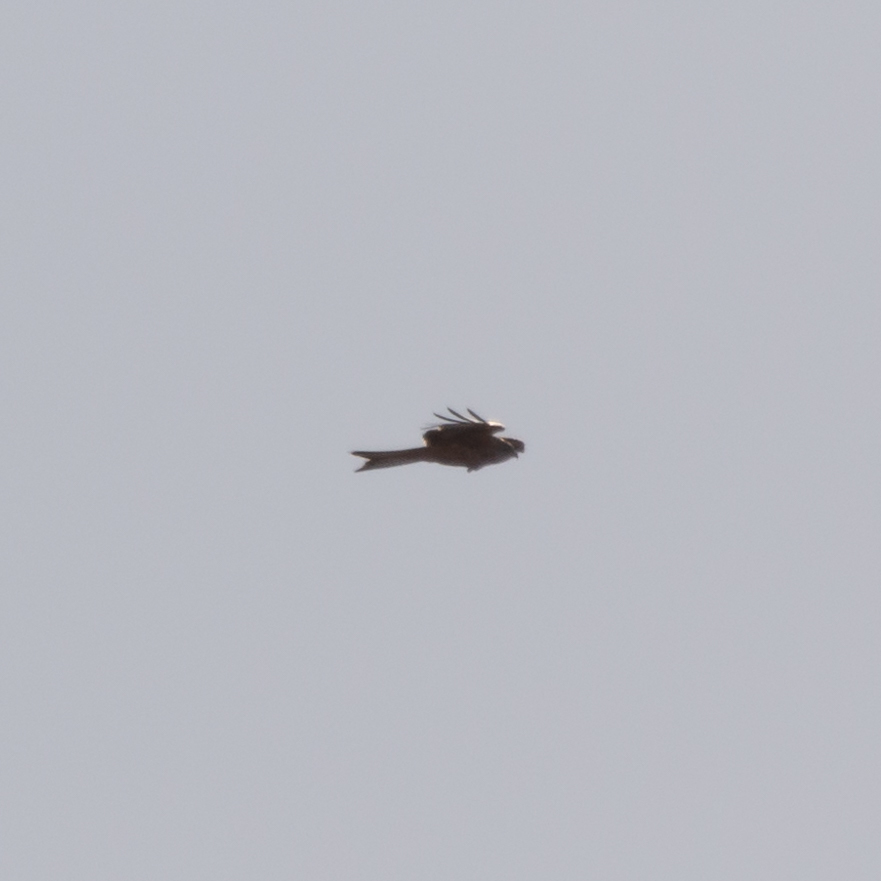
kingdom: Animalia
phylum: Chordata
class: Aves
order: Accipitriformes
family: Accipitridae
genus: Milvus
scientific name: Milvus milvus
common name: Red kite
